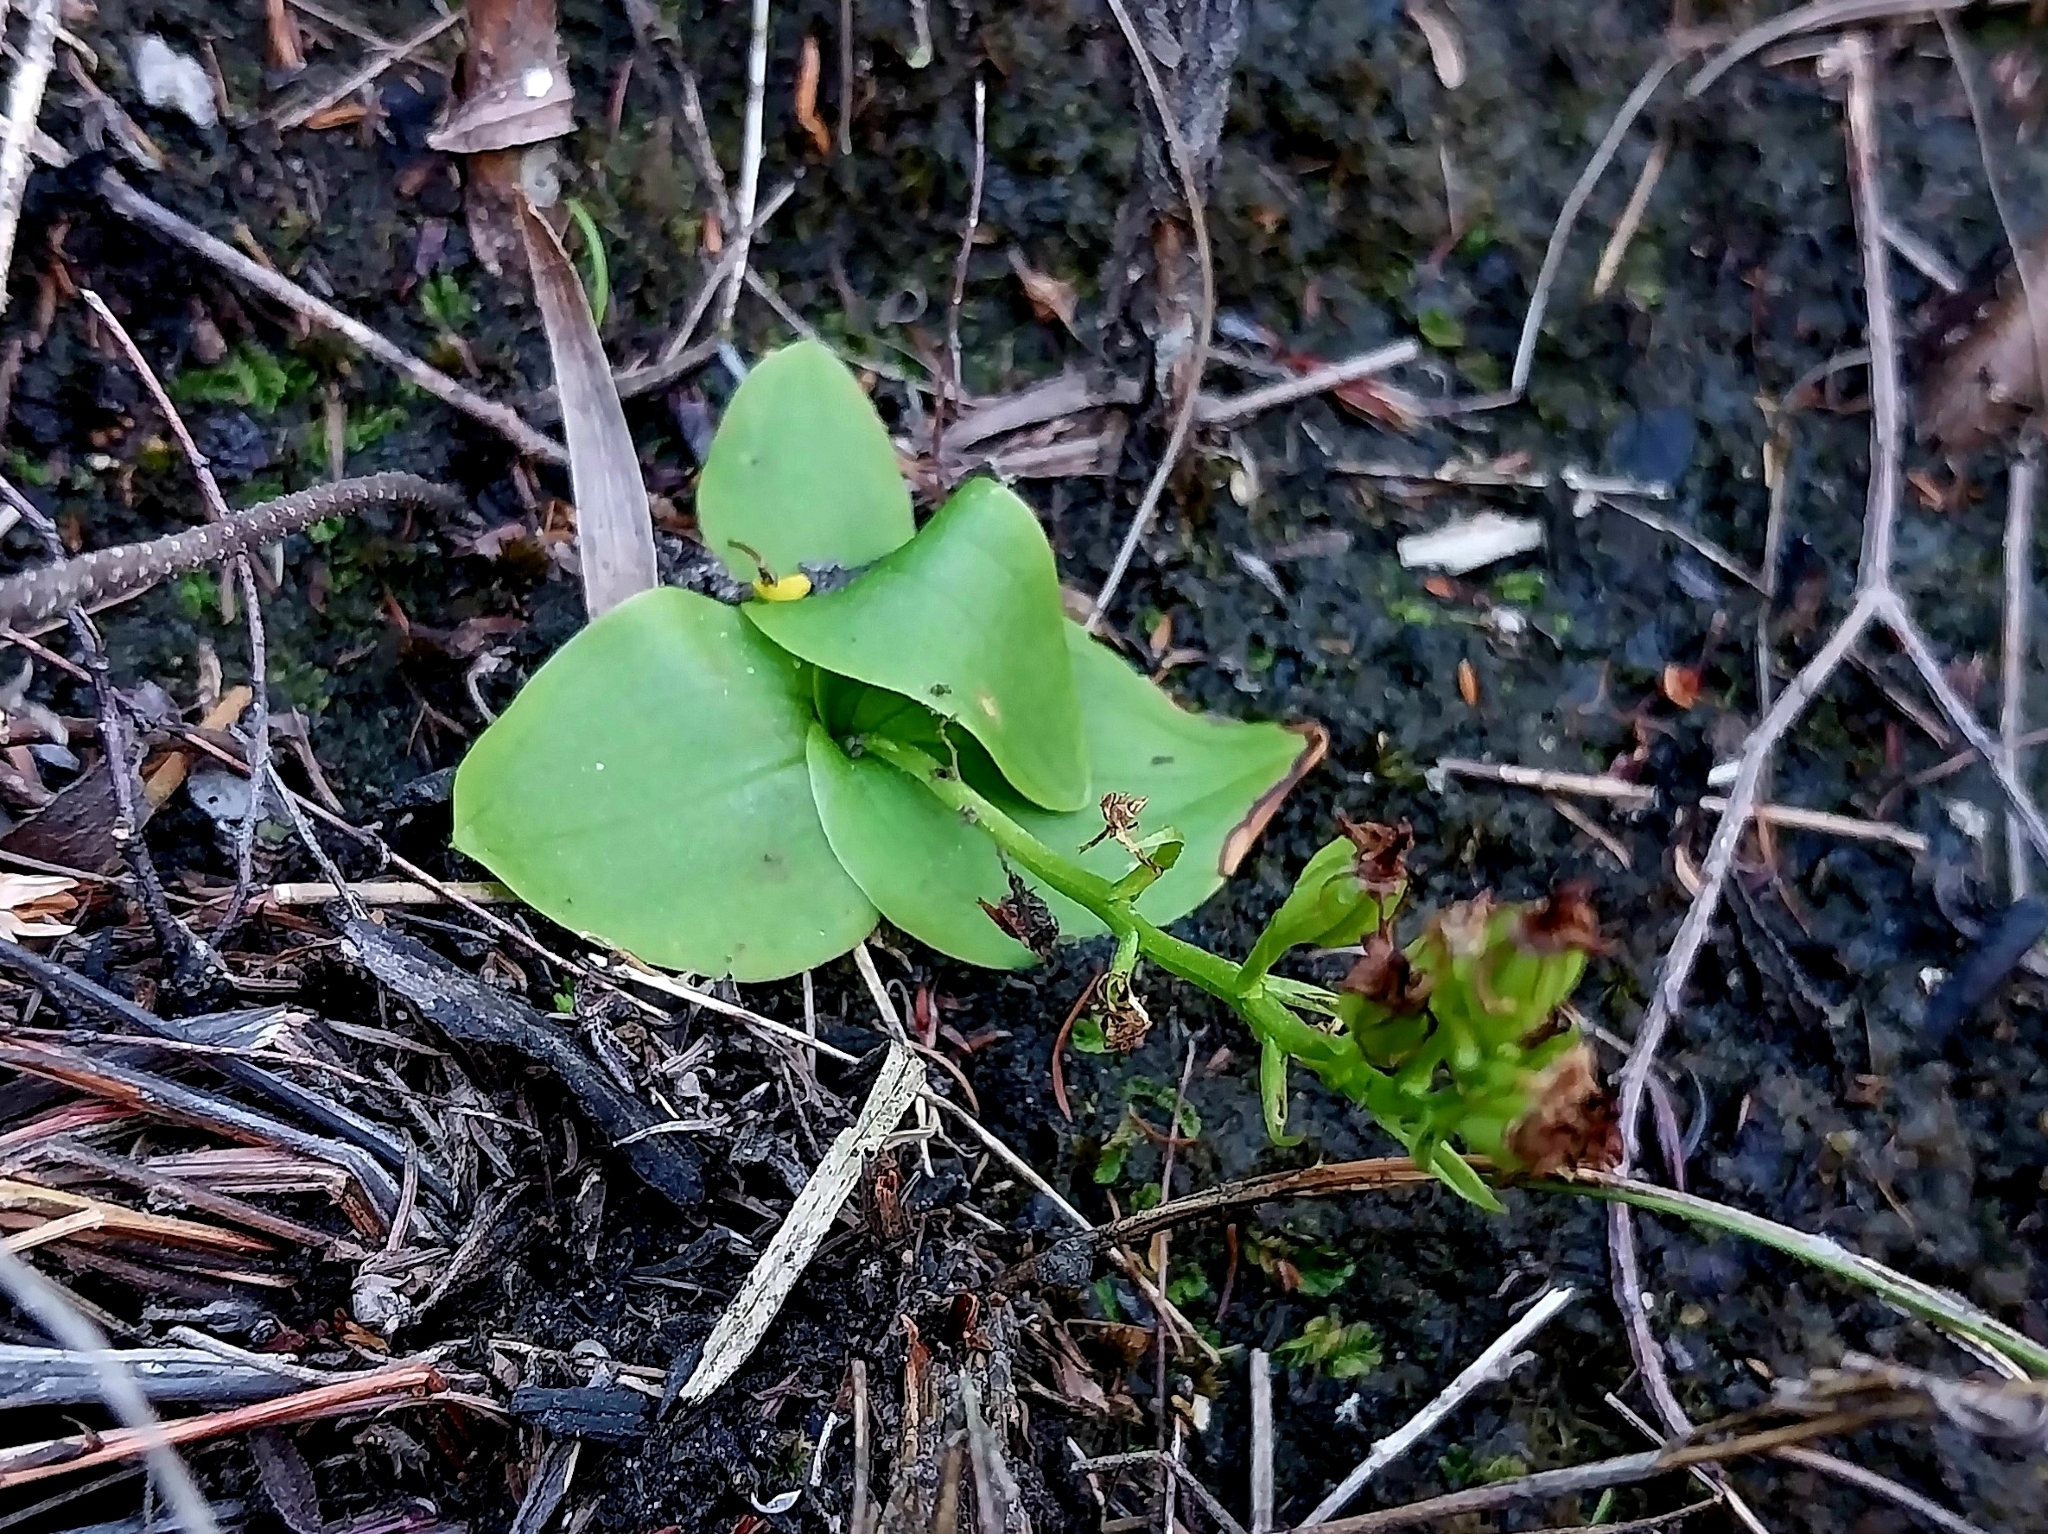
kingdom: Plantae
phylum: Tracheophyta
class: Liliopsida
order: Asparagales
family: Orchidaceae
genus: Liparis
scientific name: Liparis capensis
